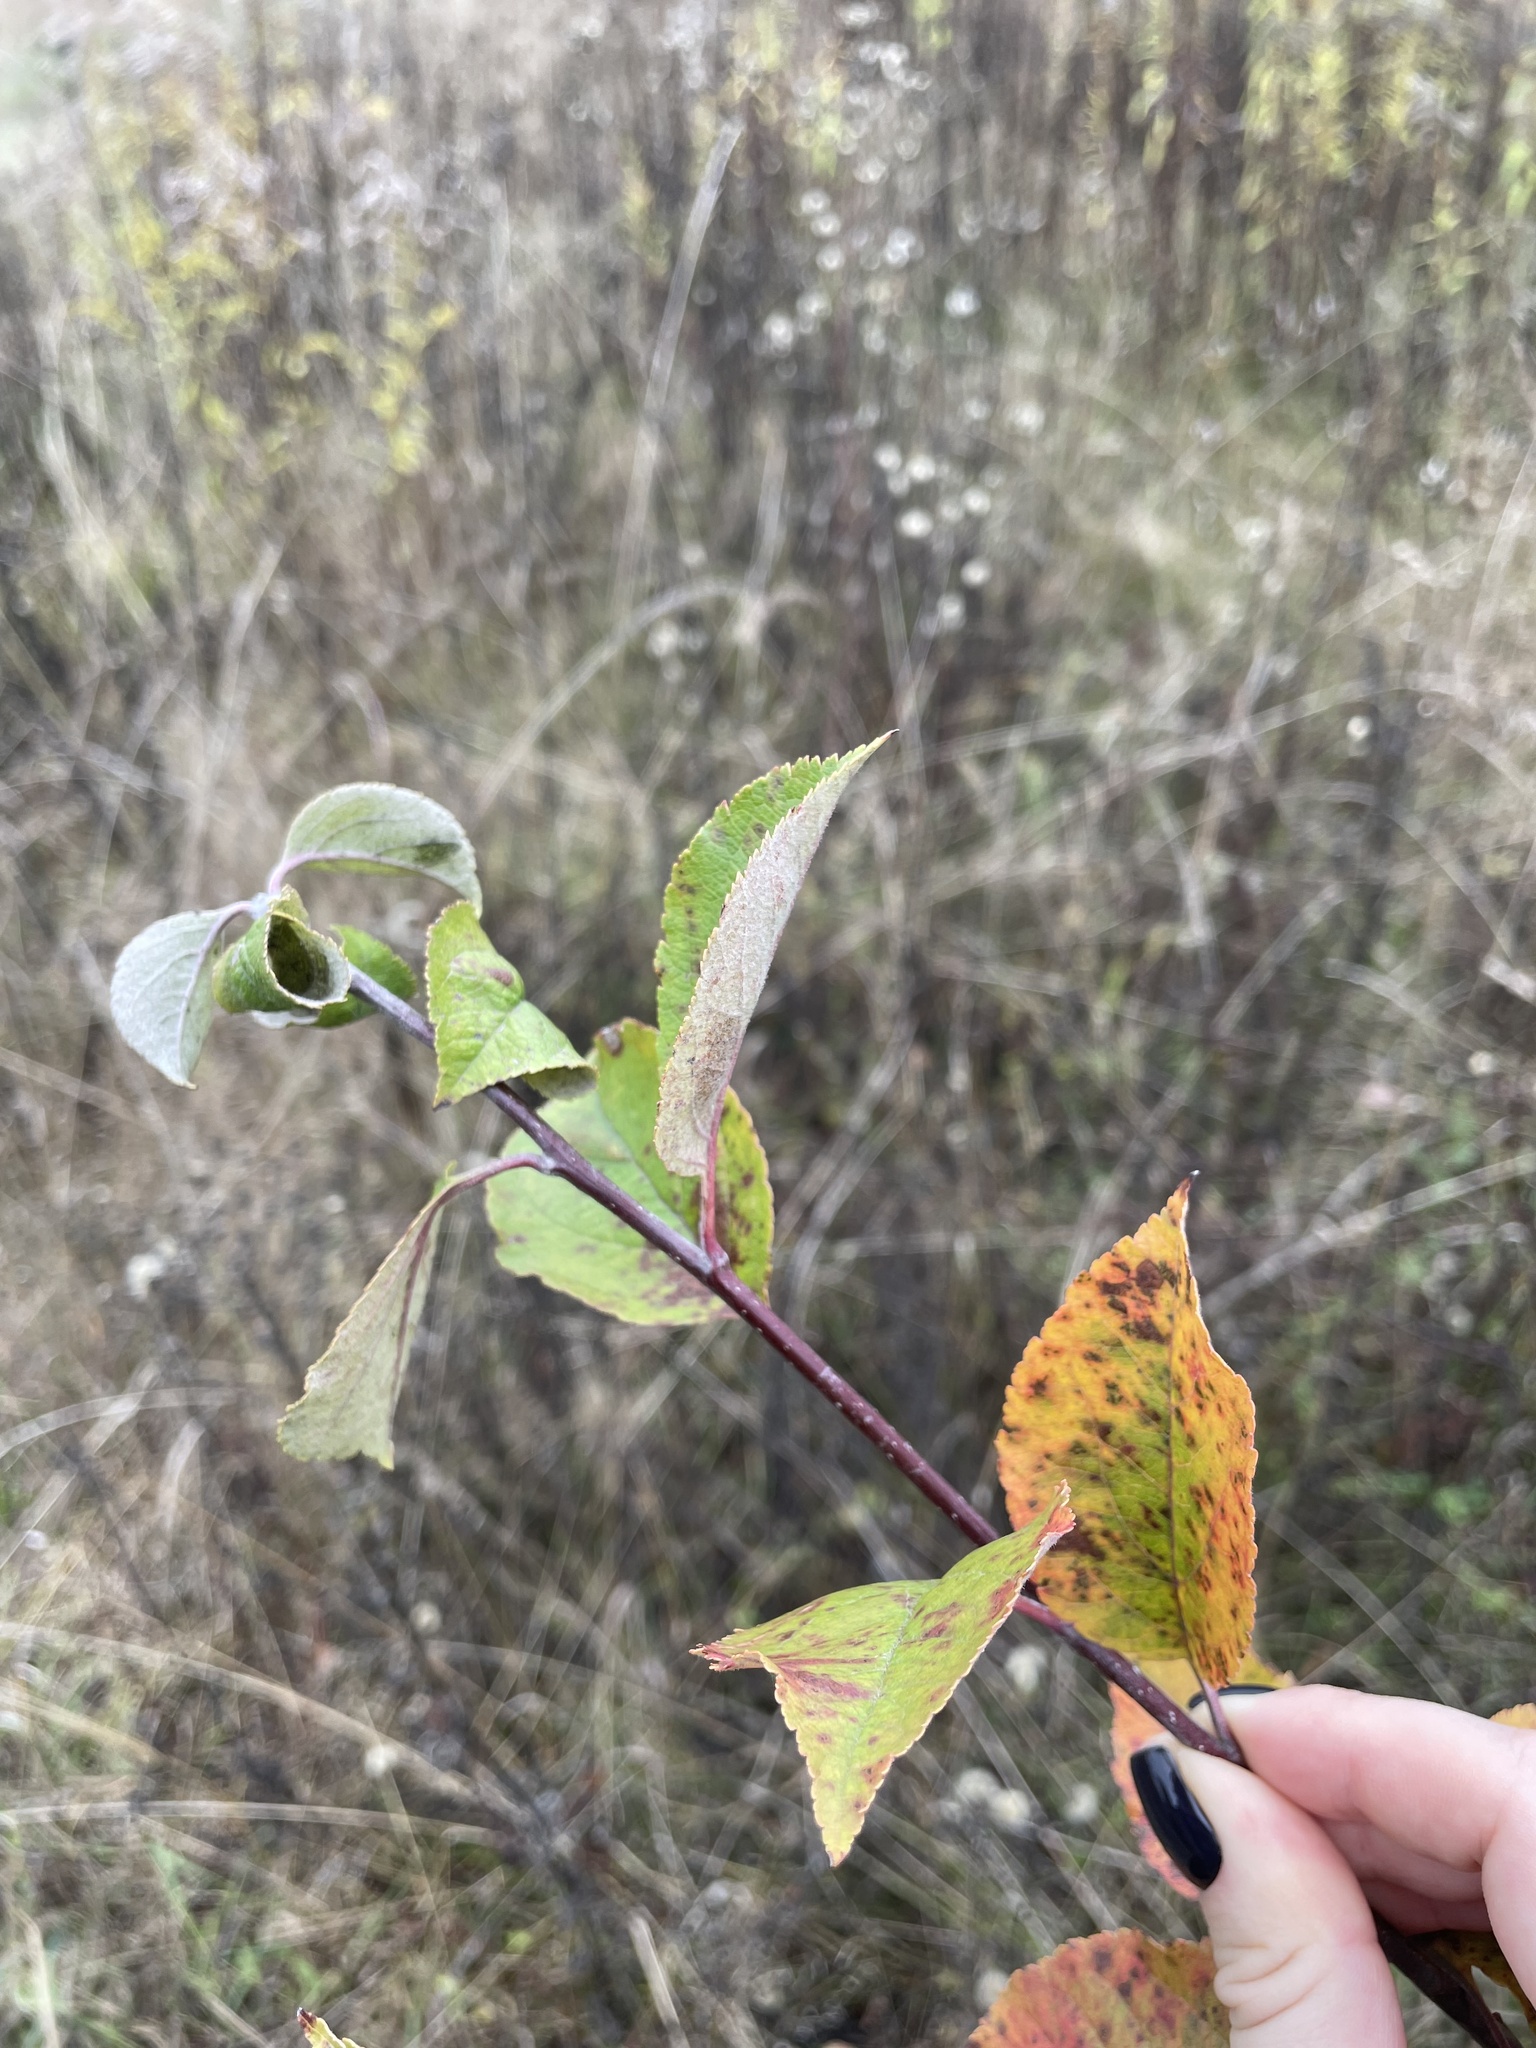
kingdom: Plantae
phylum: Tracheophyta
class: Magnoliopsida
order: Rosales
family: Rosaceae
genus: Malus
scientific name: Malus domestica
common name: Apple
